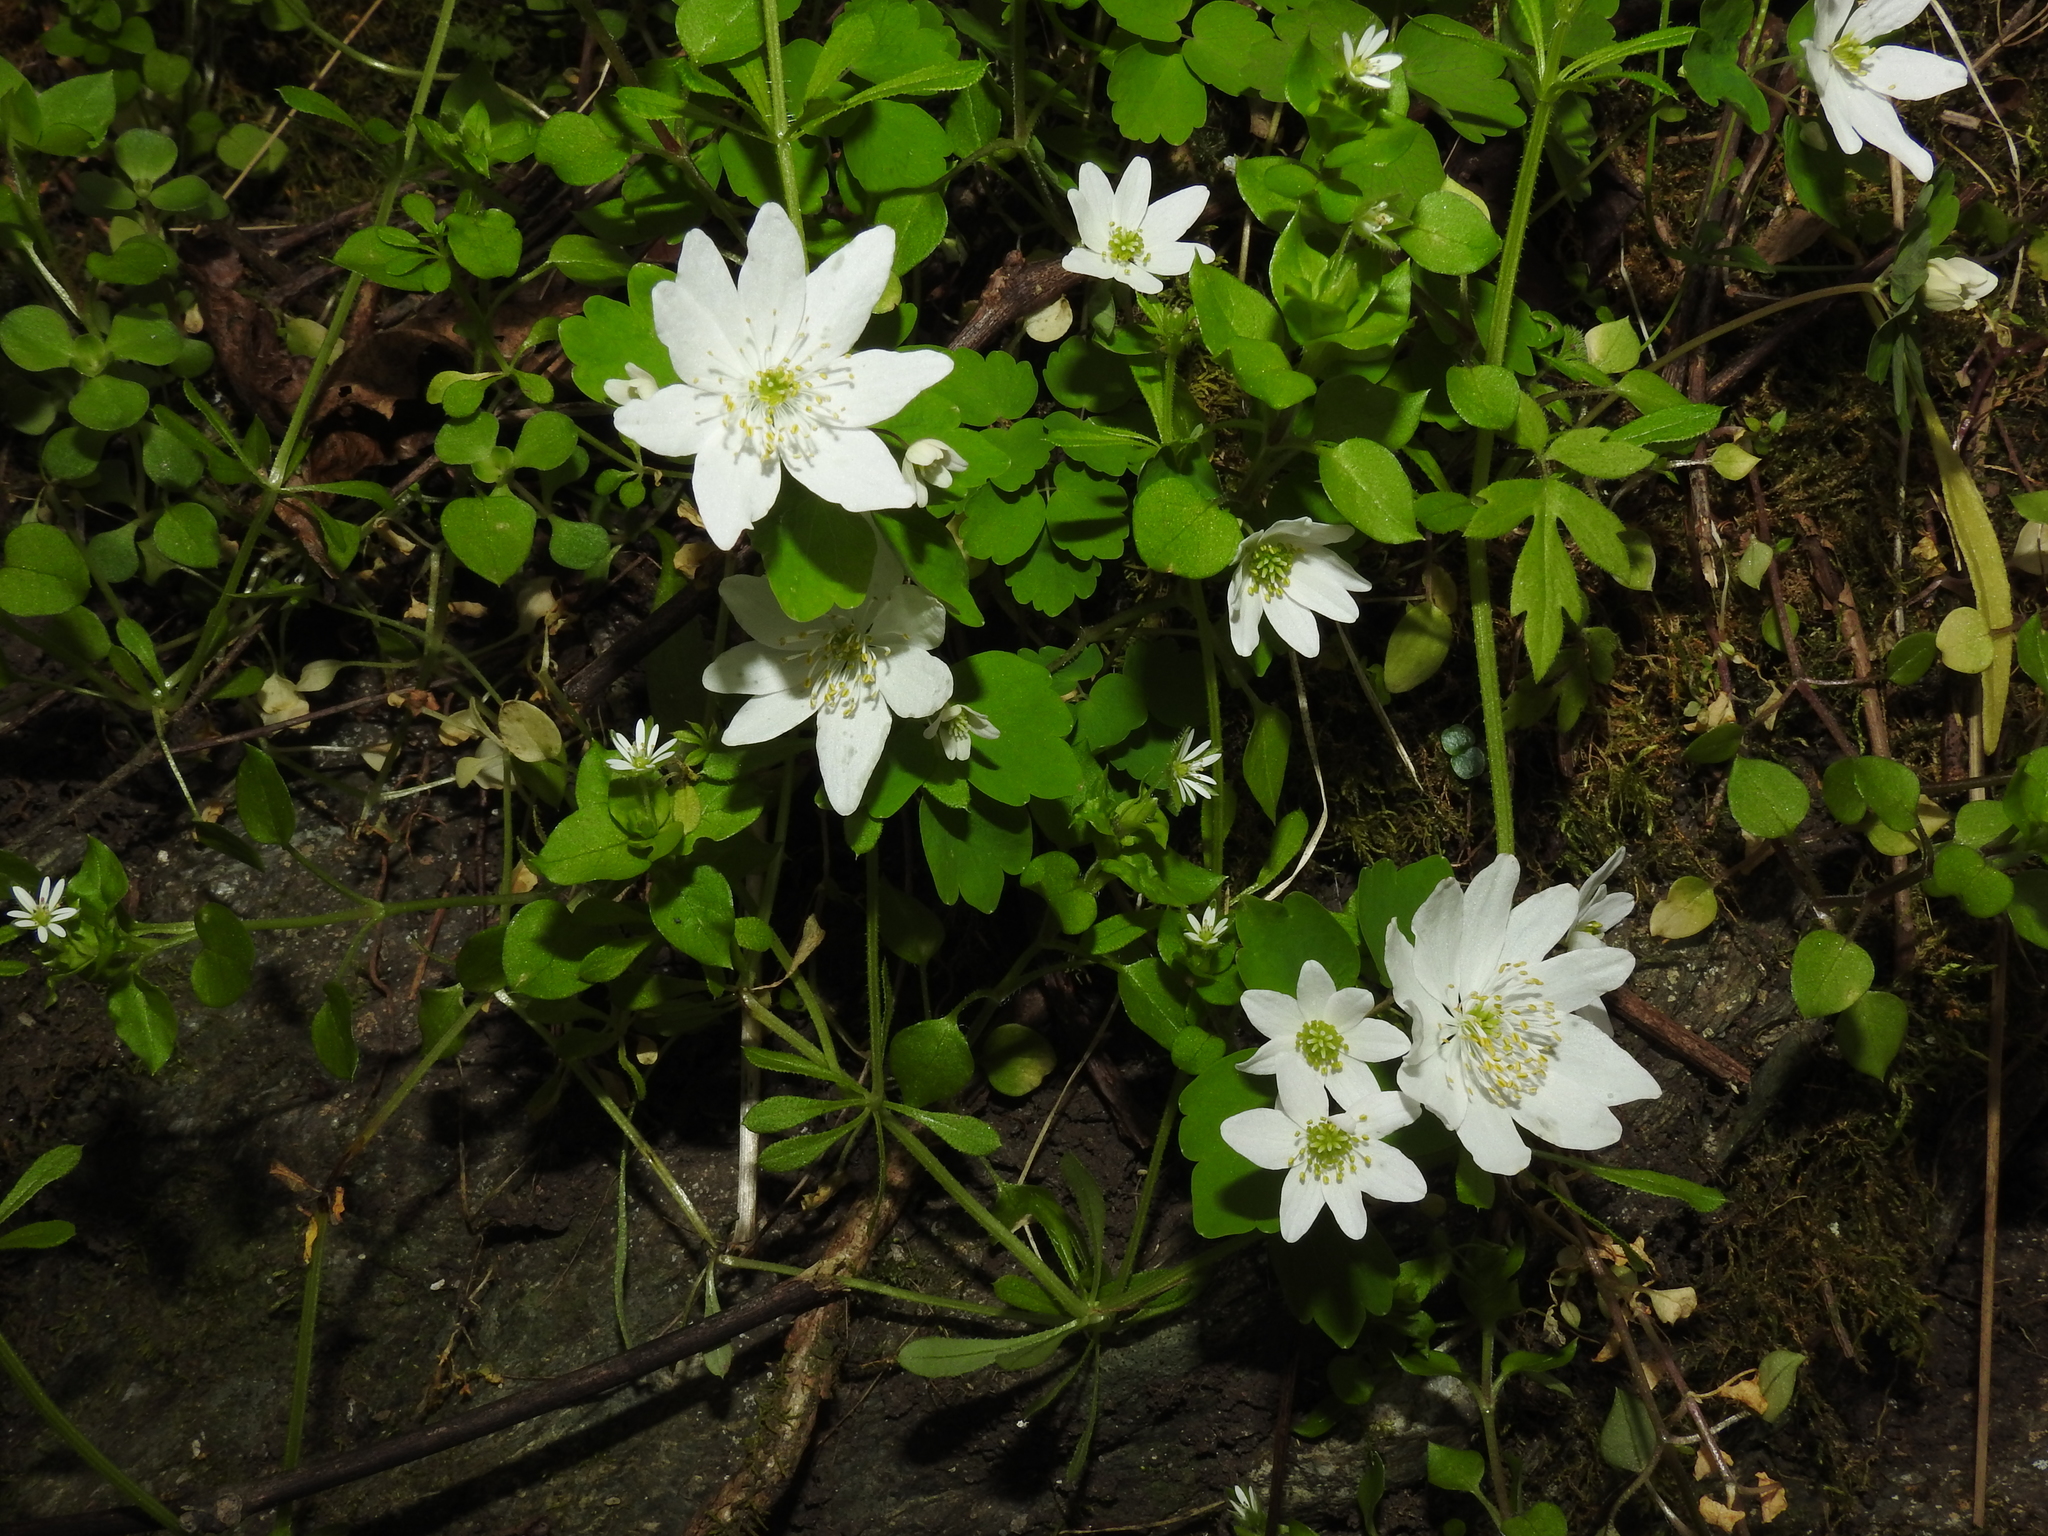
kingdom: Plantae
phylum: Tracheophyta
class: Magnoliopsida
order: Ranunculales
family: Ranunculaceae
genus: Thalictrum
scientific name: Thalictrum thalictroides
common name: Rue-anemone
